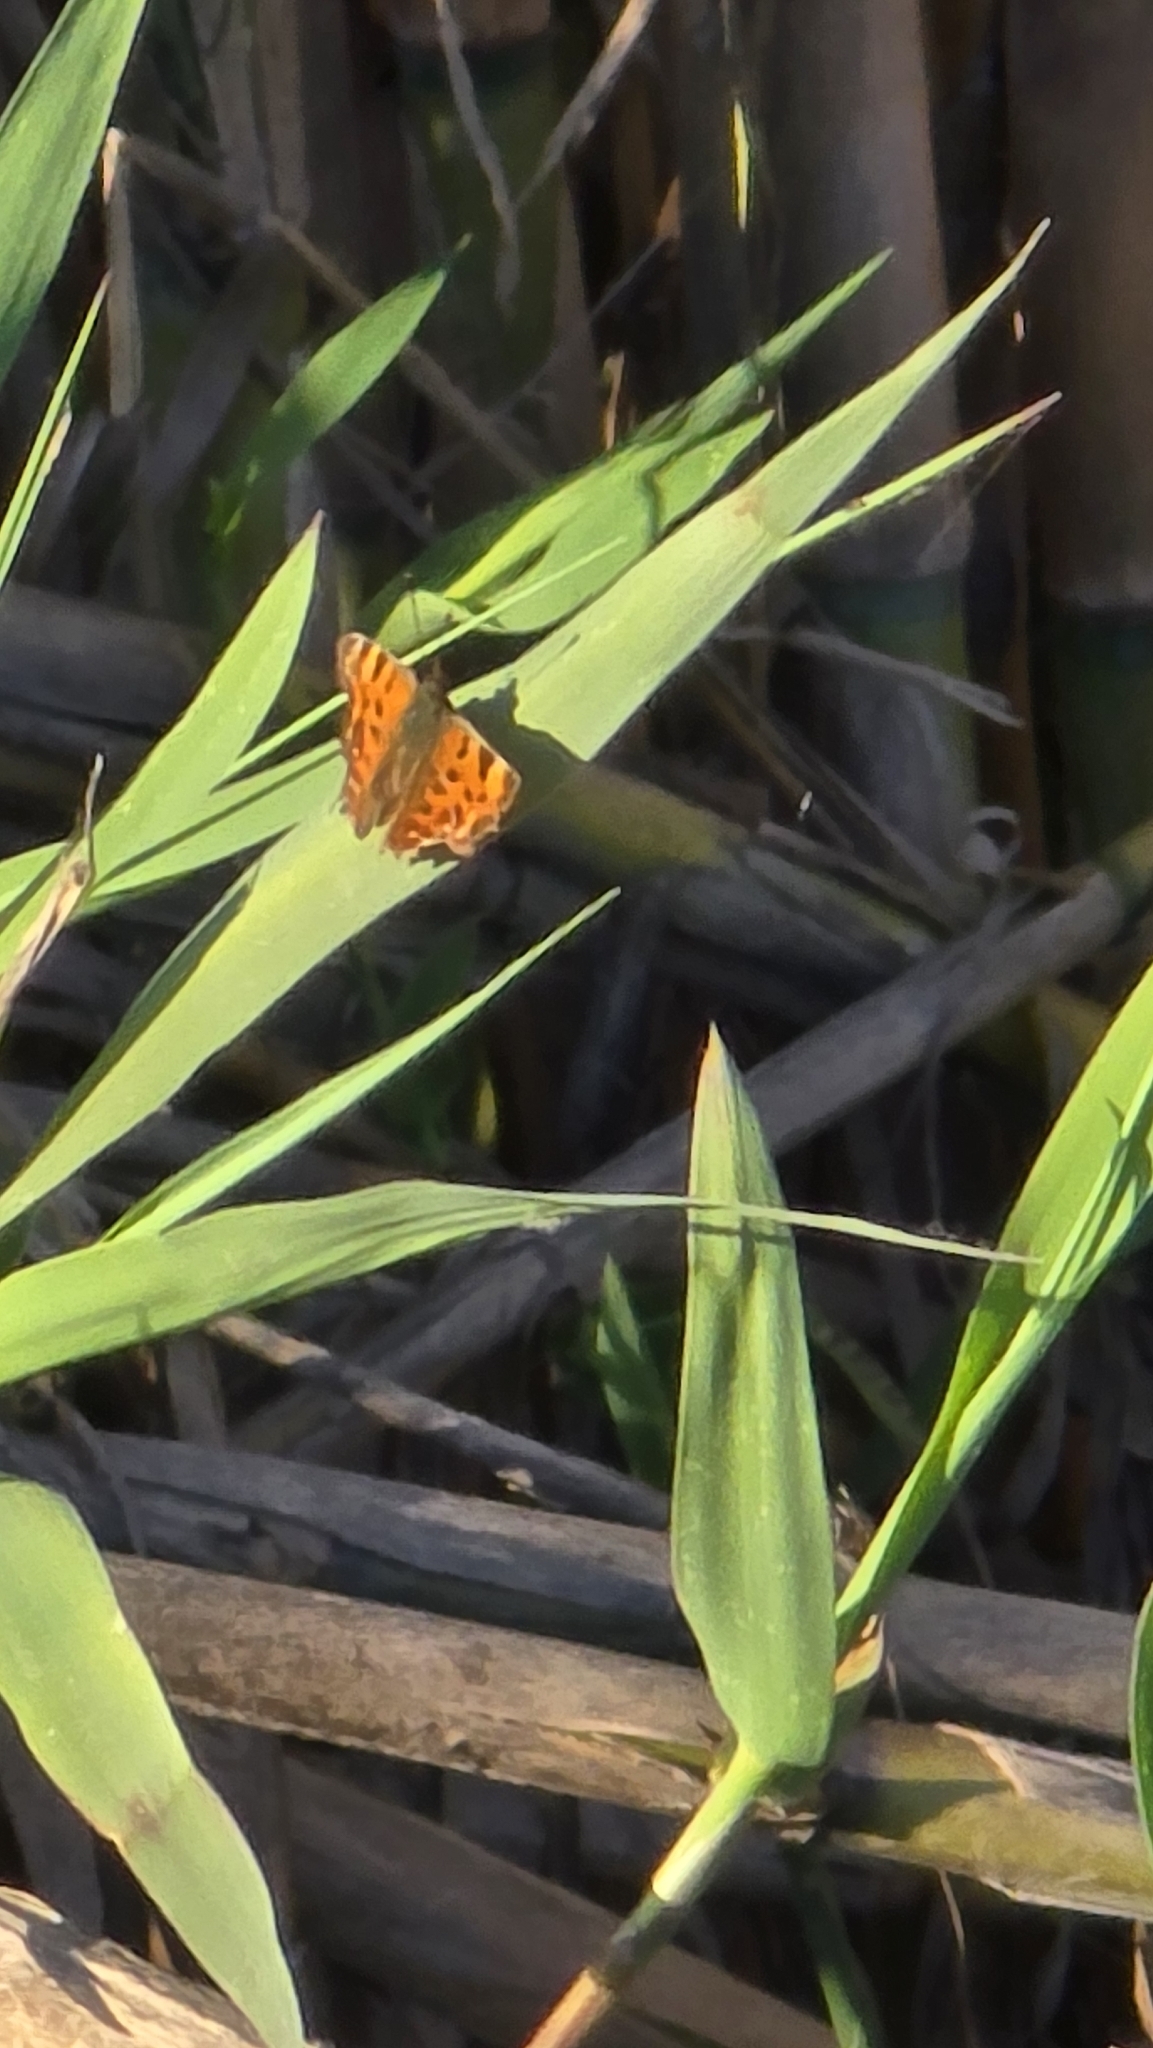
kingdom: Animalia
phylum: Arthropoda
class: Insecta
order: Lepidoptera
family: Nymphalidae
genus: Polygonia
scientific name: Polygonia c-album
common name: Comma
